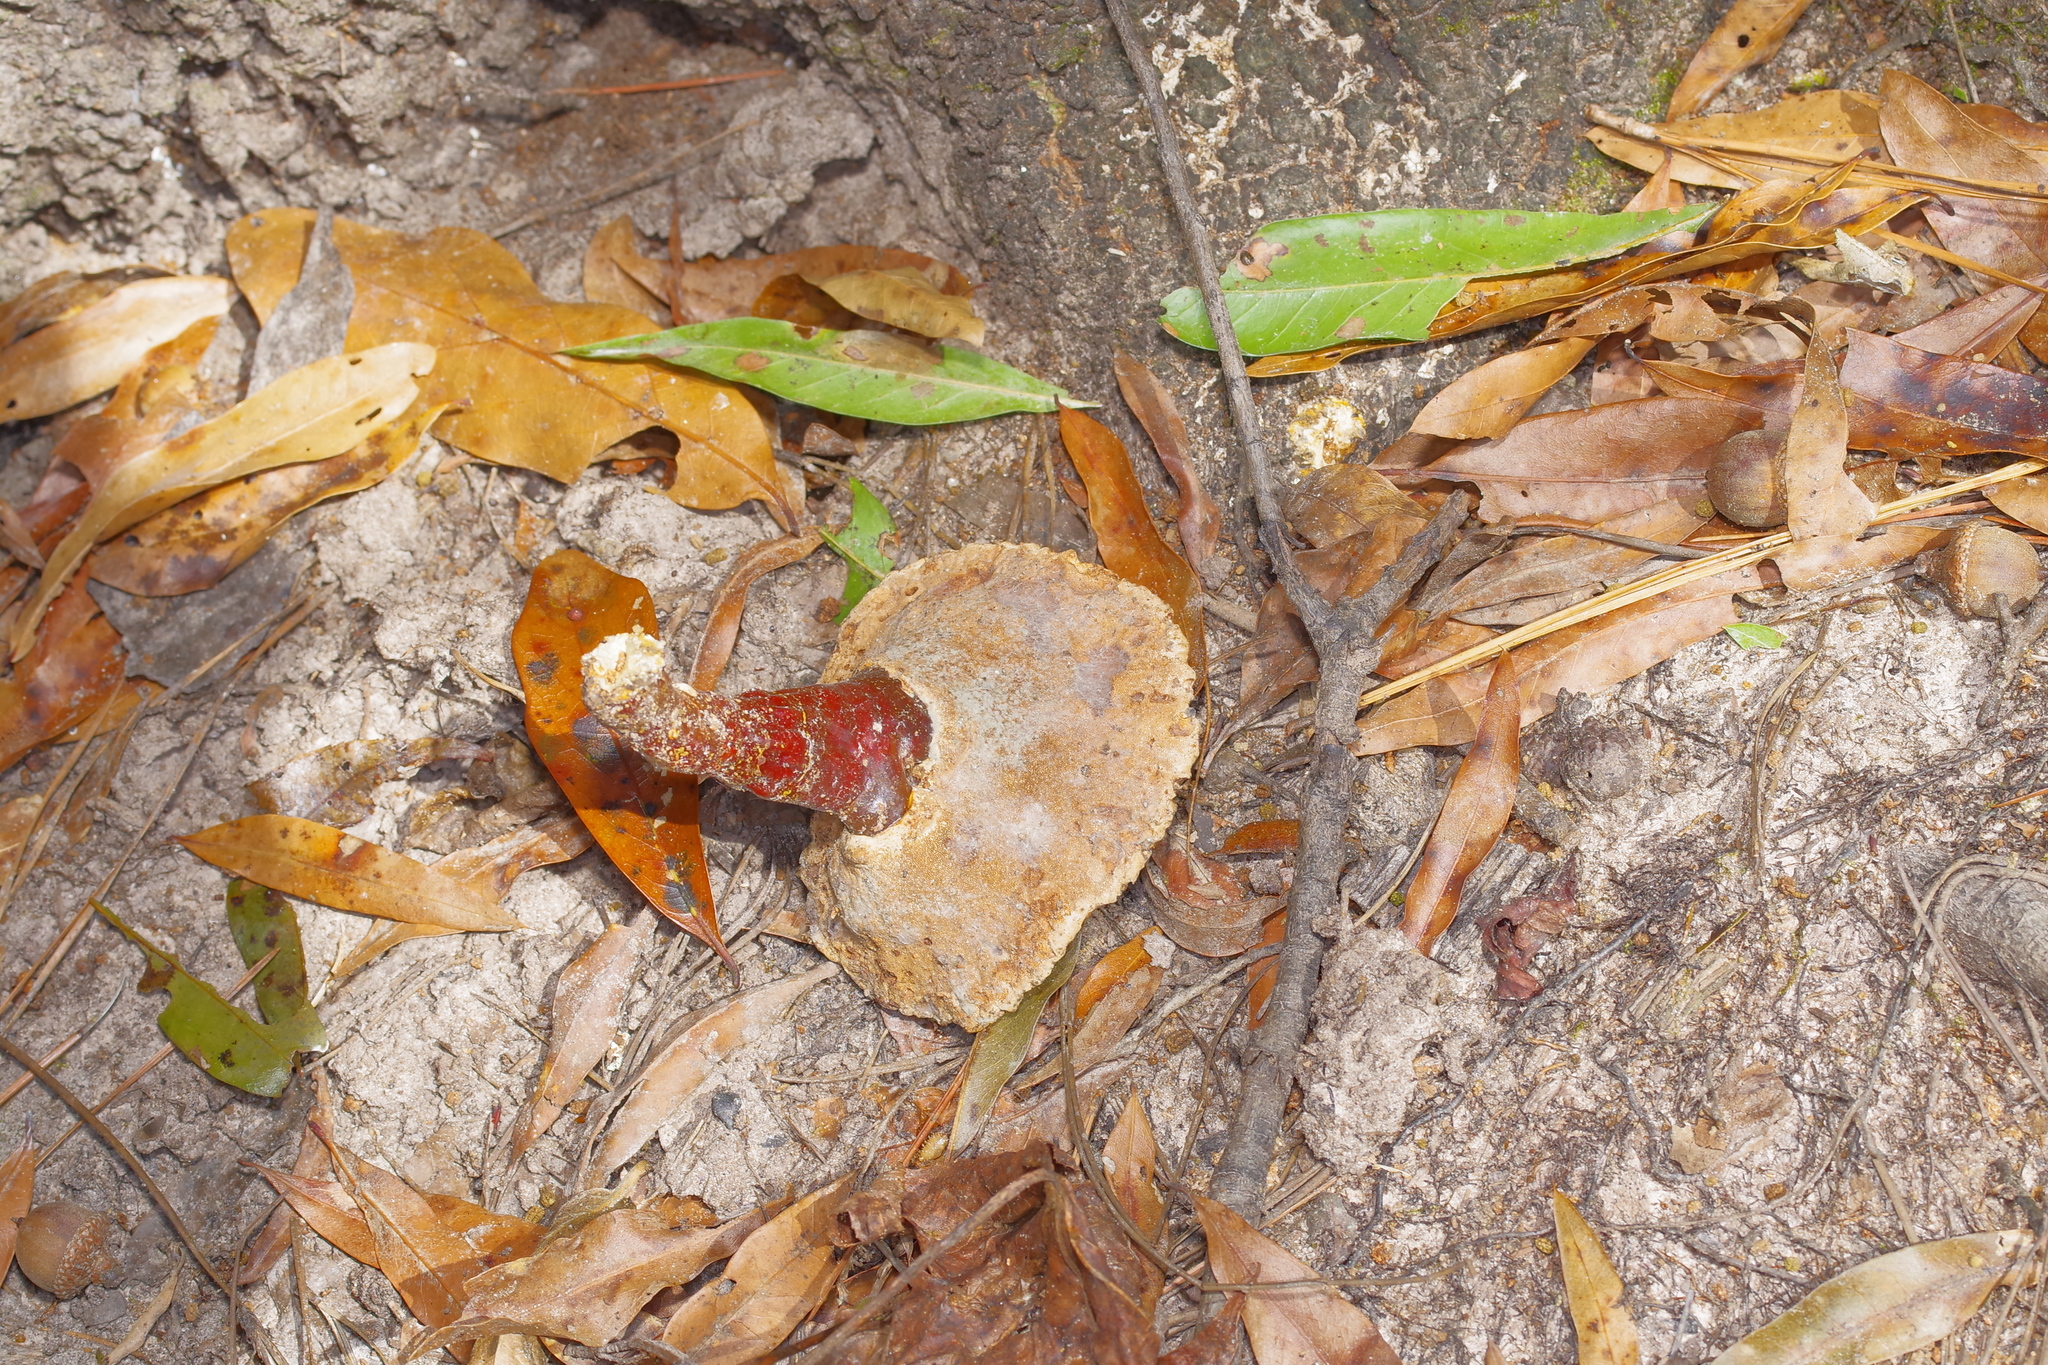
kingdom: Fungi
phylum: Basidiomycota
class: Agaricomycetes
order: Polyporales
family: Polyporaceae
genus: Ganoderma
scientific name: Ganoderma curtisii
